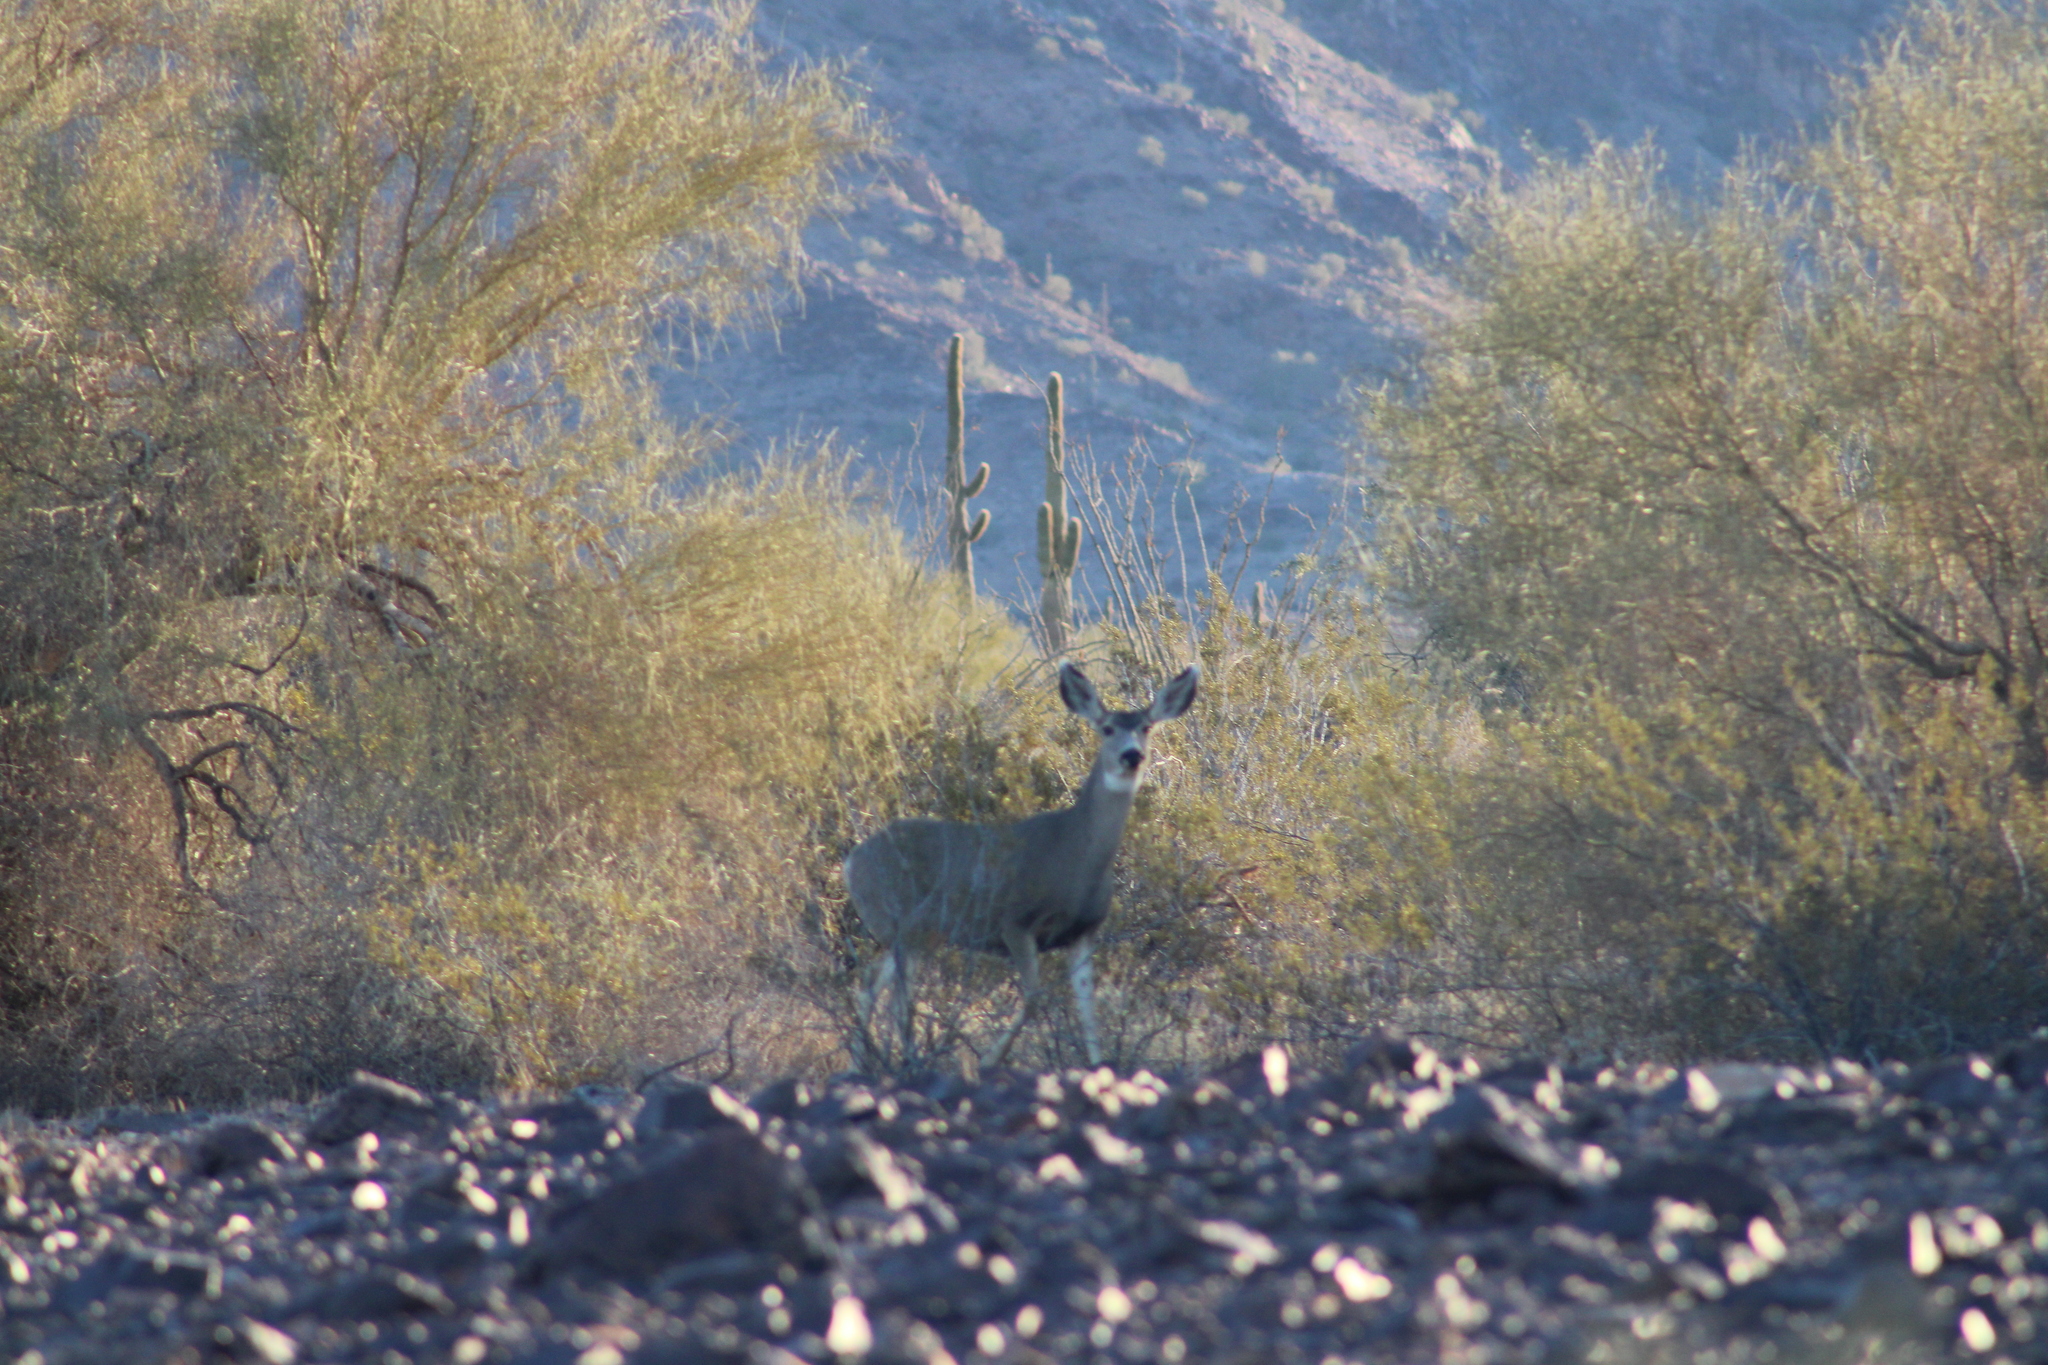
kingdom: Animalia
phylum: Chordata
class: Mammalia
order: Artiodactyla
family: Cervidae
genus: Odocoileus
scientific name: Odocoileus hemionus
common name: Mule deer
